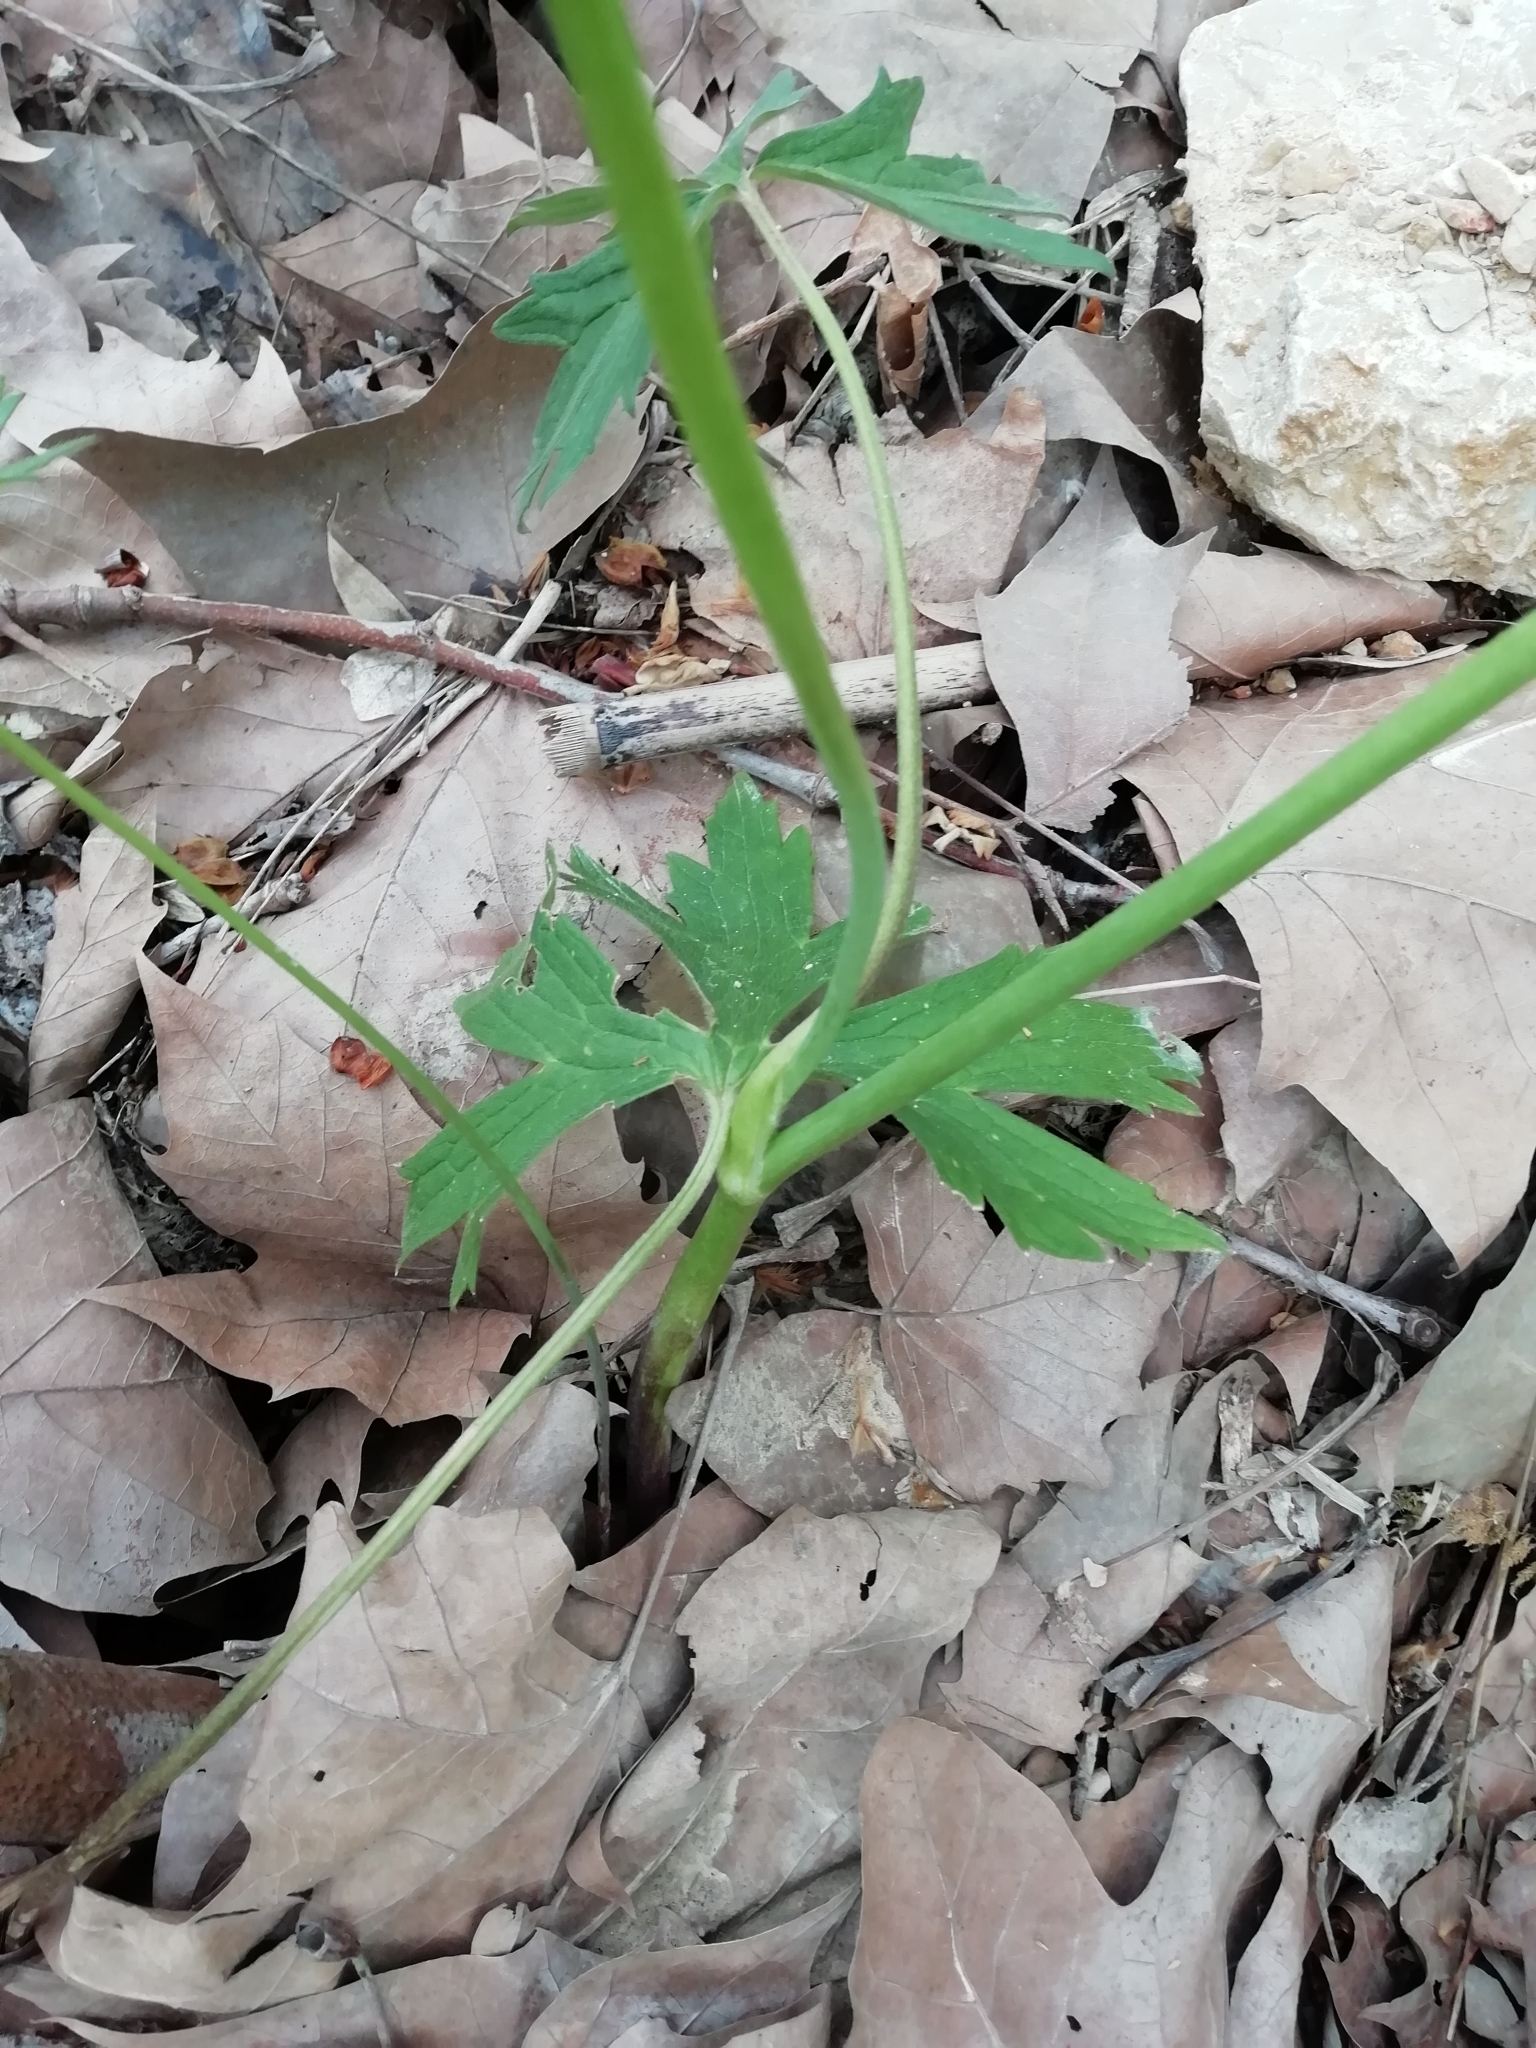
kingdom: Plantae
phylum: Tracheophyta
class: Magnoliopsida
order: Ranunculales
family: Ranunculaceae
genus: Ranunculus
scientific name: Ranunculus acris
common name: Meadow buttercup
